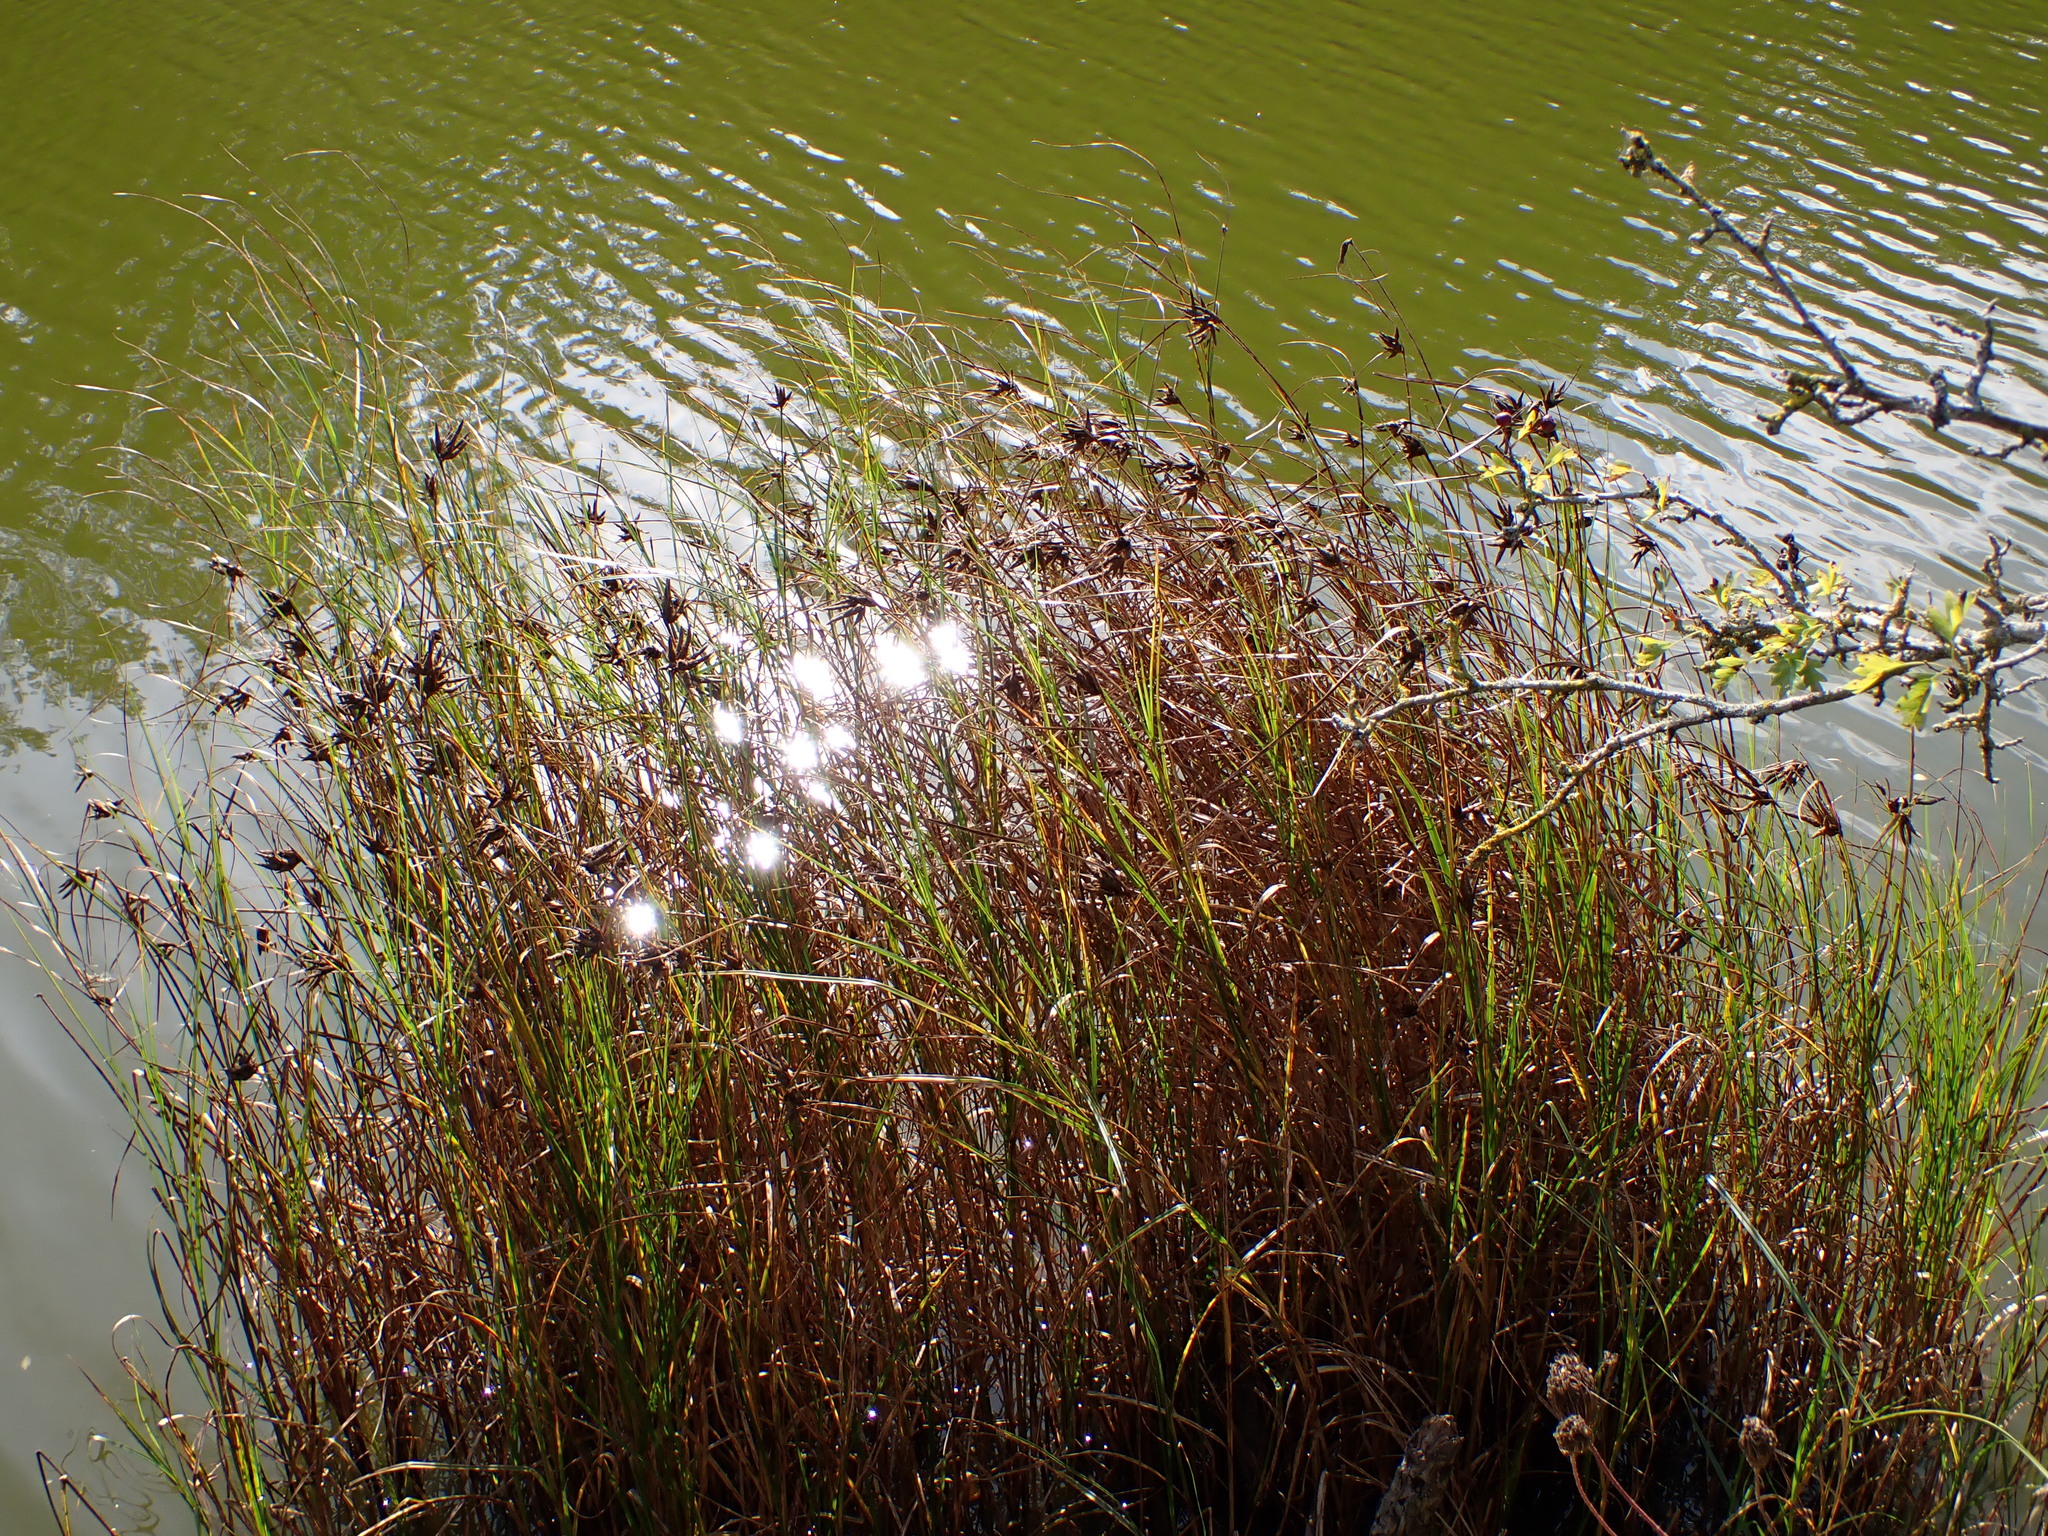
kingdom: Plantae
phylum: Tracheophyta
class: Liliopsida
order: Poales
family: Cyperaceae
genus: Bolboschoenus
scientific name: Bolboschoenus maritimus
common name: Sea club-rush
